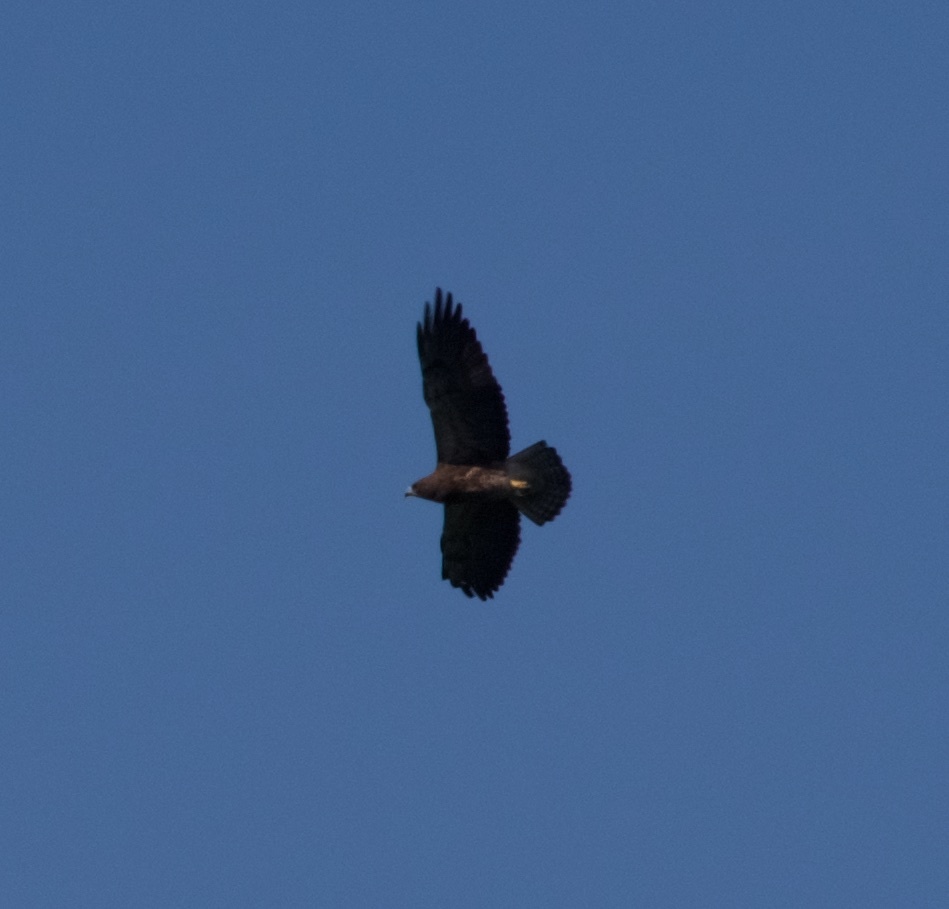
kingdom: Animalia
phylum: Chordata
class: Aves
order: Accipitriformes
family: Accipitridae
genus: Buteo
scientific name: Buteo swainsoni
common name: Swainson's hawk
